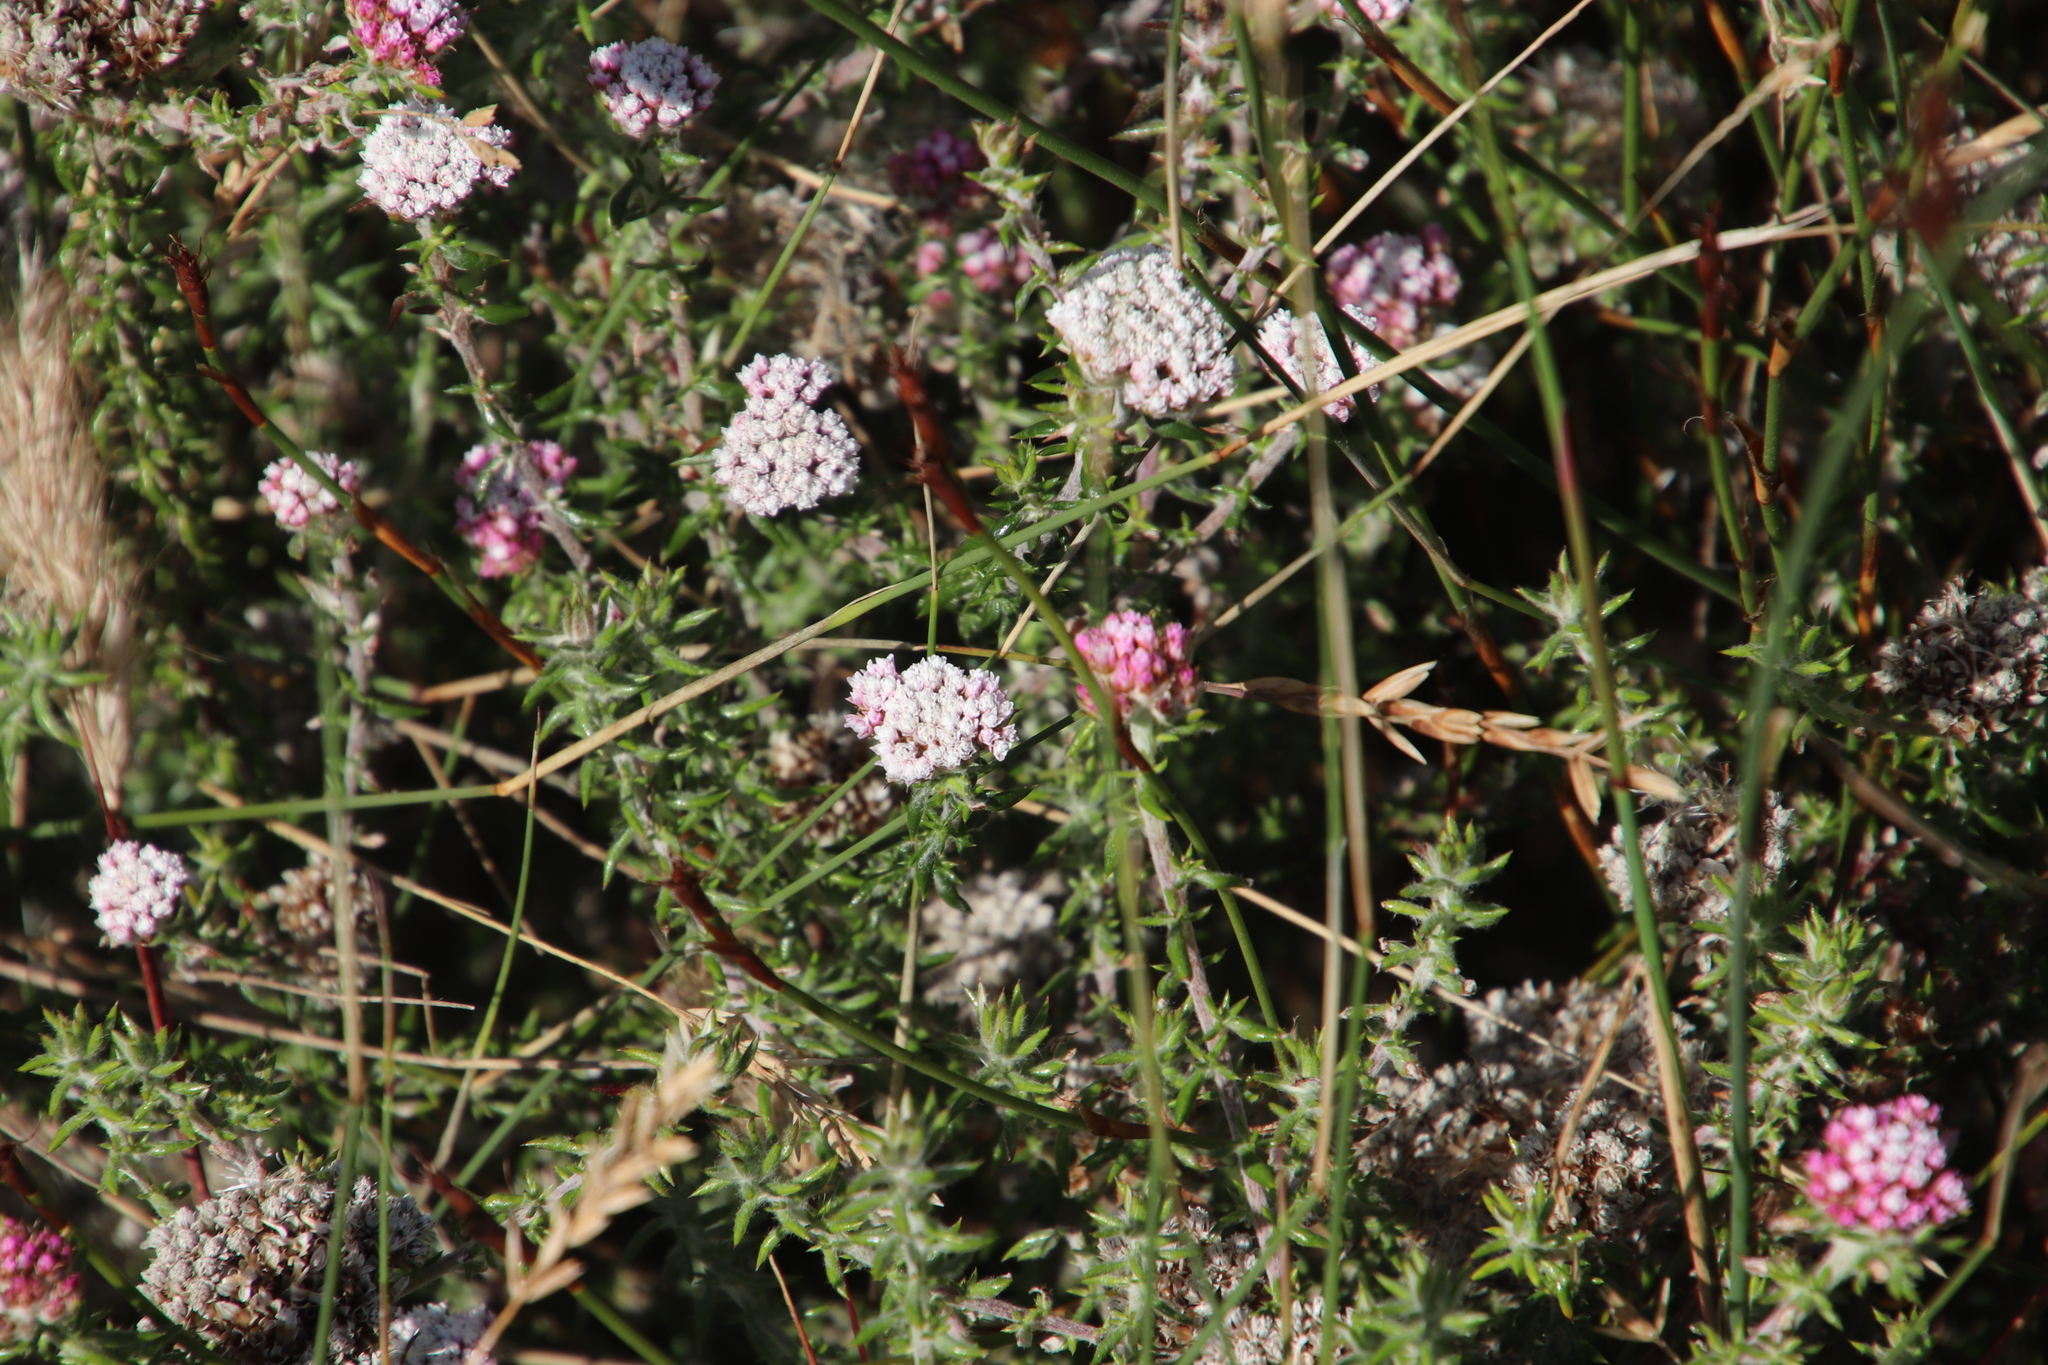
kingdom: Plantae
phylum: Tracheophyta
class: Magnoliopsida
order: Asterales
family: Asteraceae
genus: Metalasia
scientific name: Metalasia divergens
